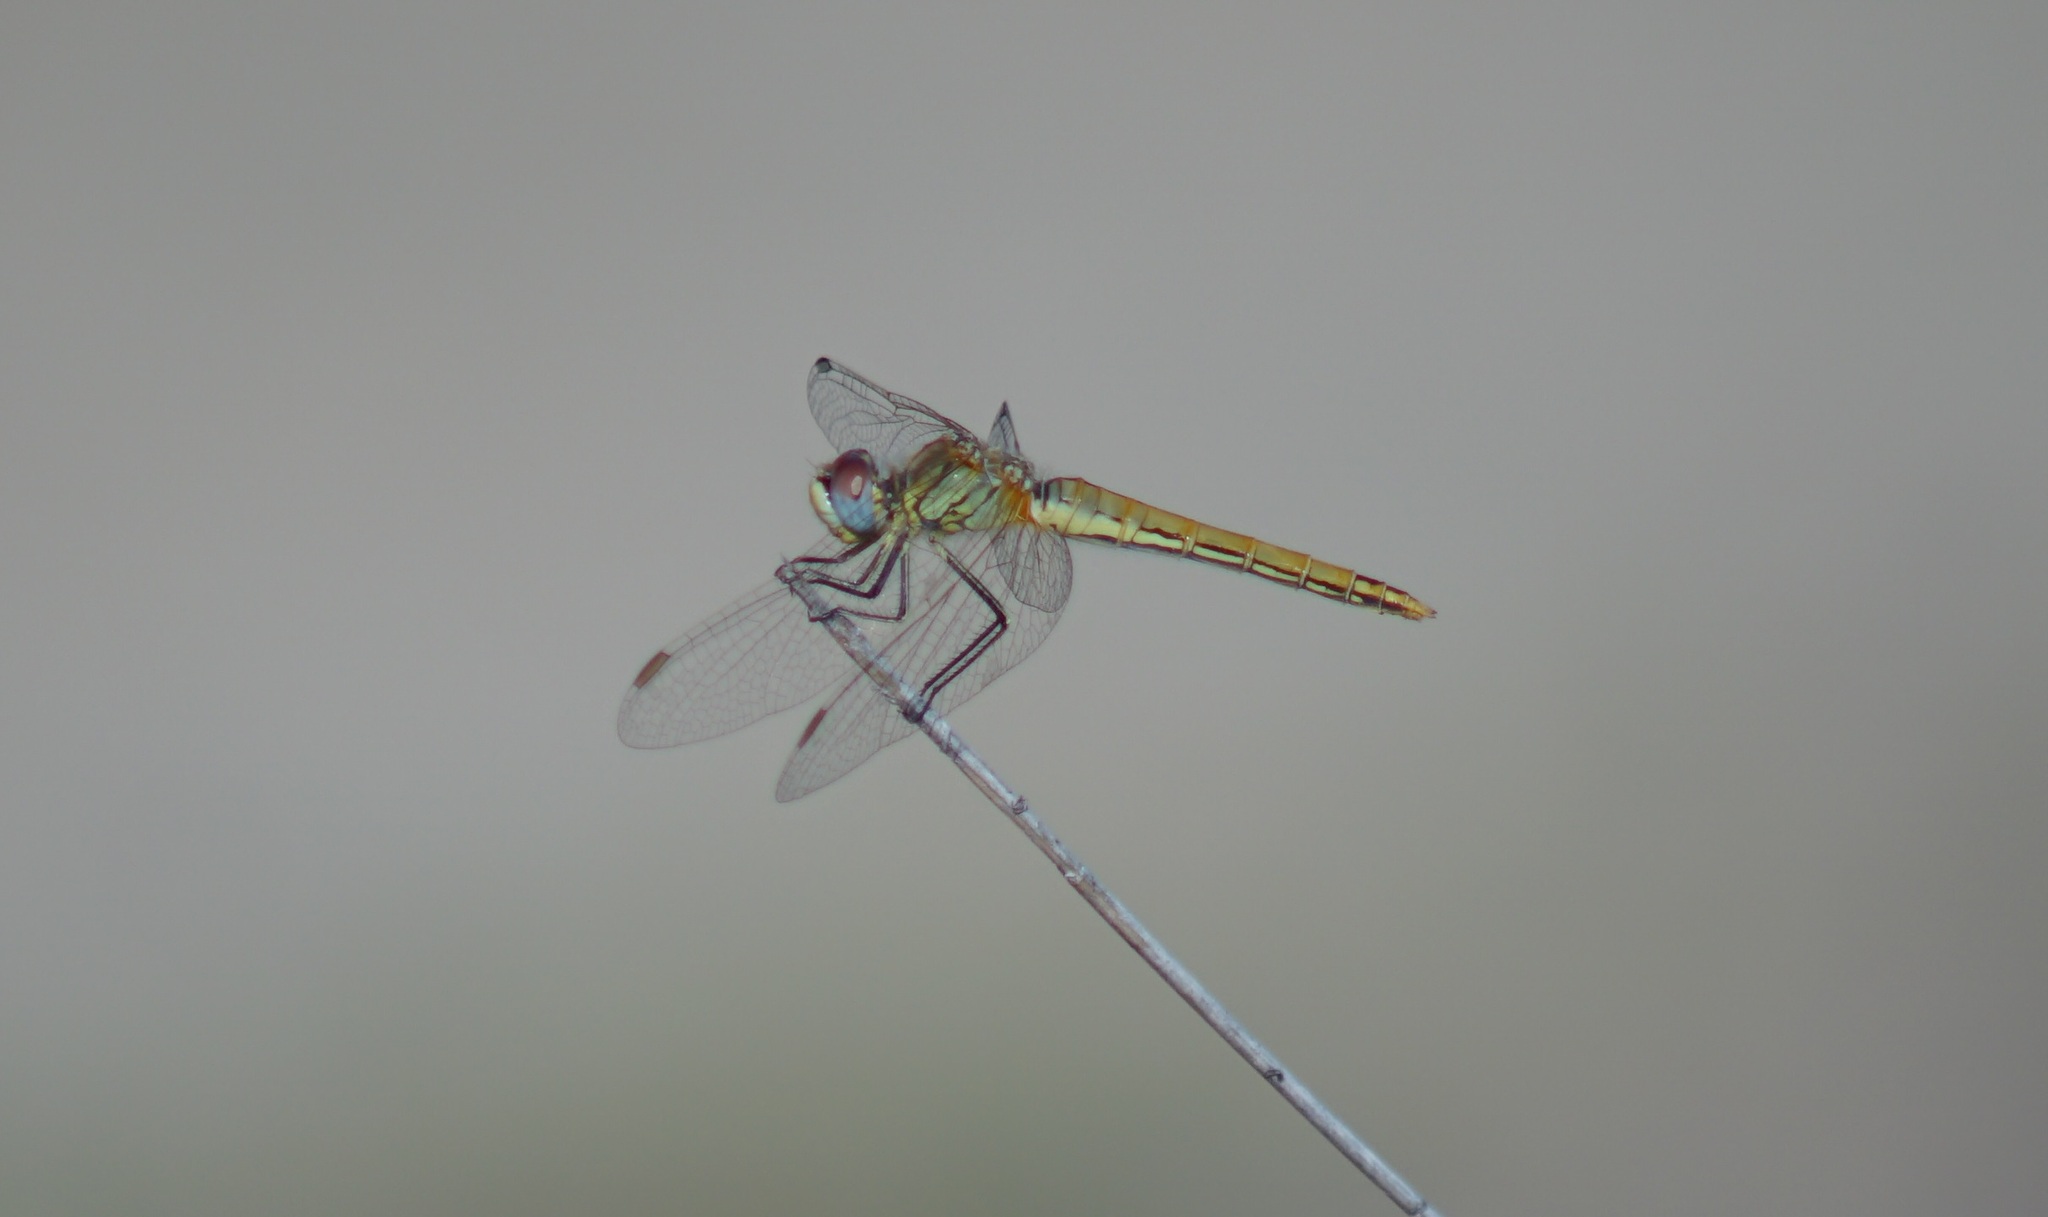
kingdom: Animalia
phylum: Arthropoda
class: Insecta
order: Odonata
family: Libellulidae
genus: Sympetrum
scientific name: Sympetrum fonscolombii
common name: Red-veined darter
